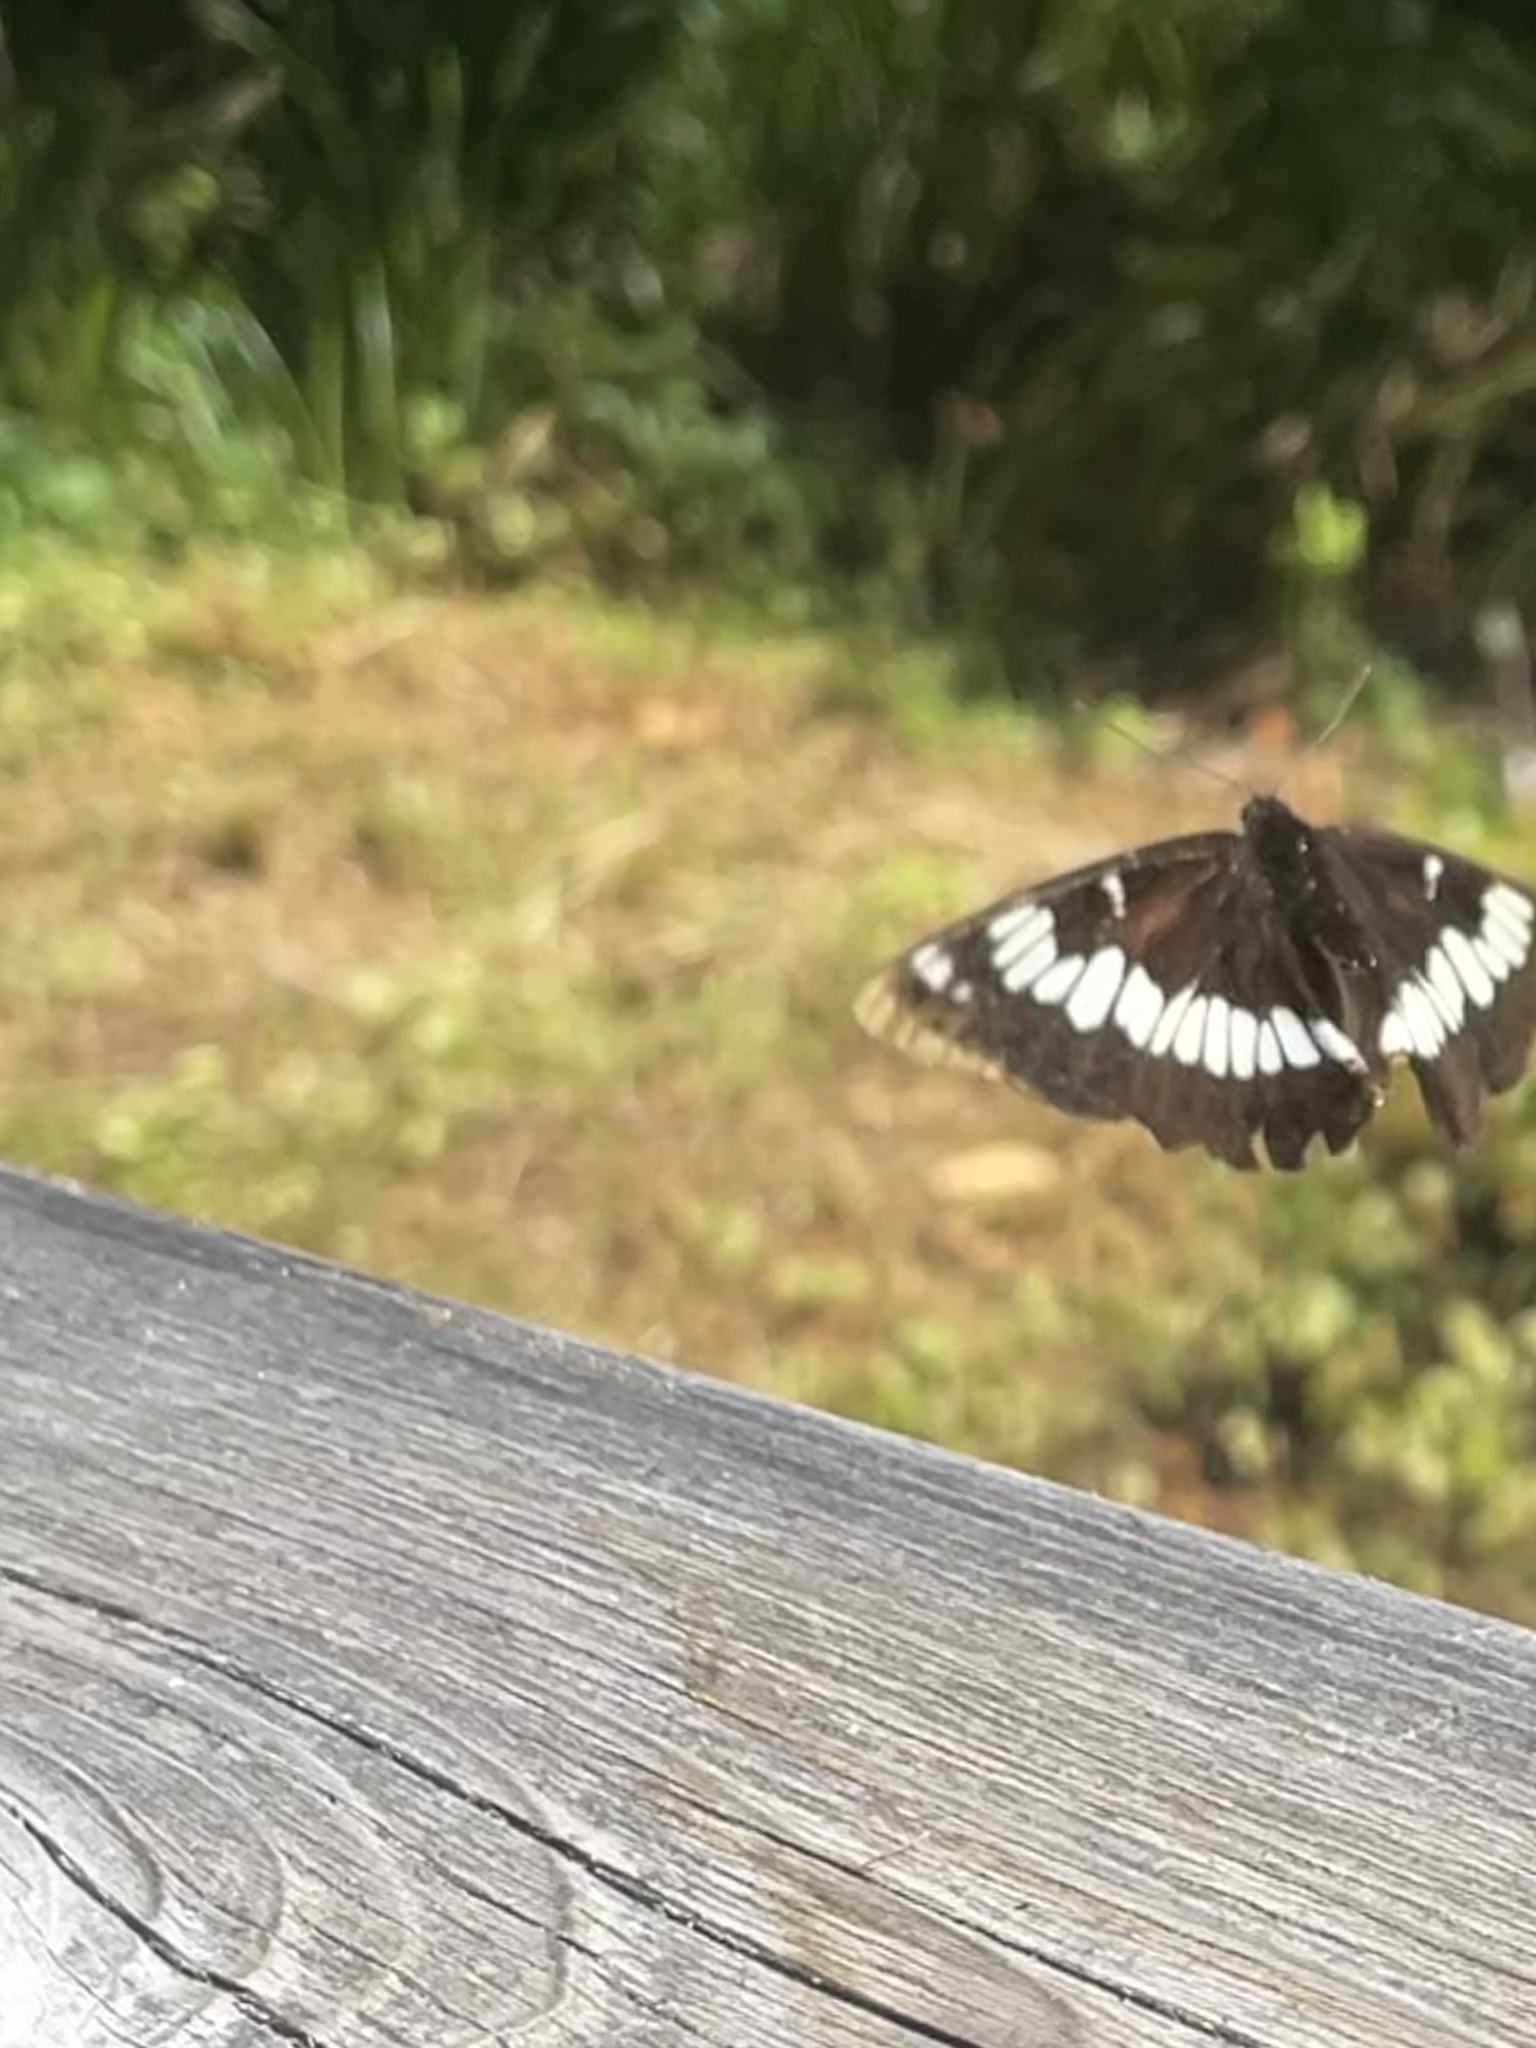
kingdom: Animalia
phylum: Arthropoda
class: Insecta
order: Lepidoptera
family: Nymphalidae
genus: Limenitis
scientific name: Limenitis lorquini
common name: Lorquin's admiral
